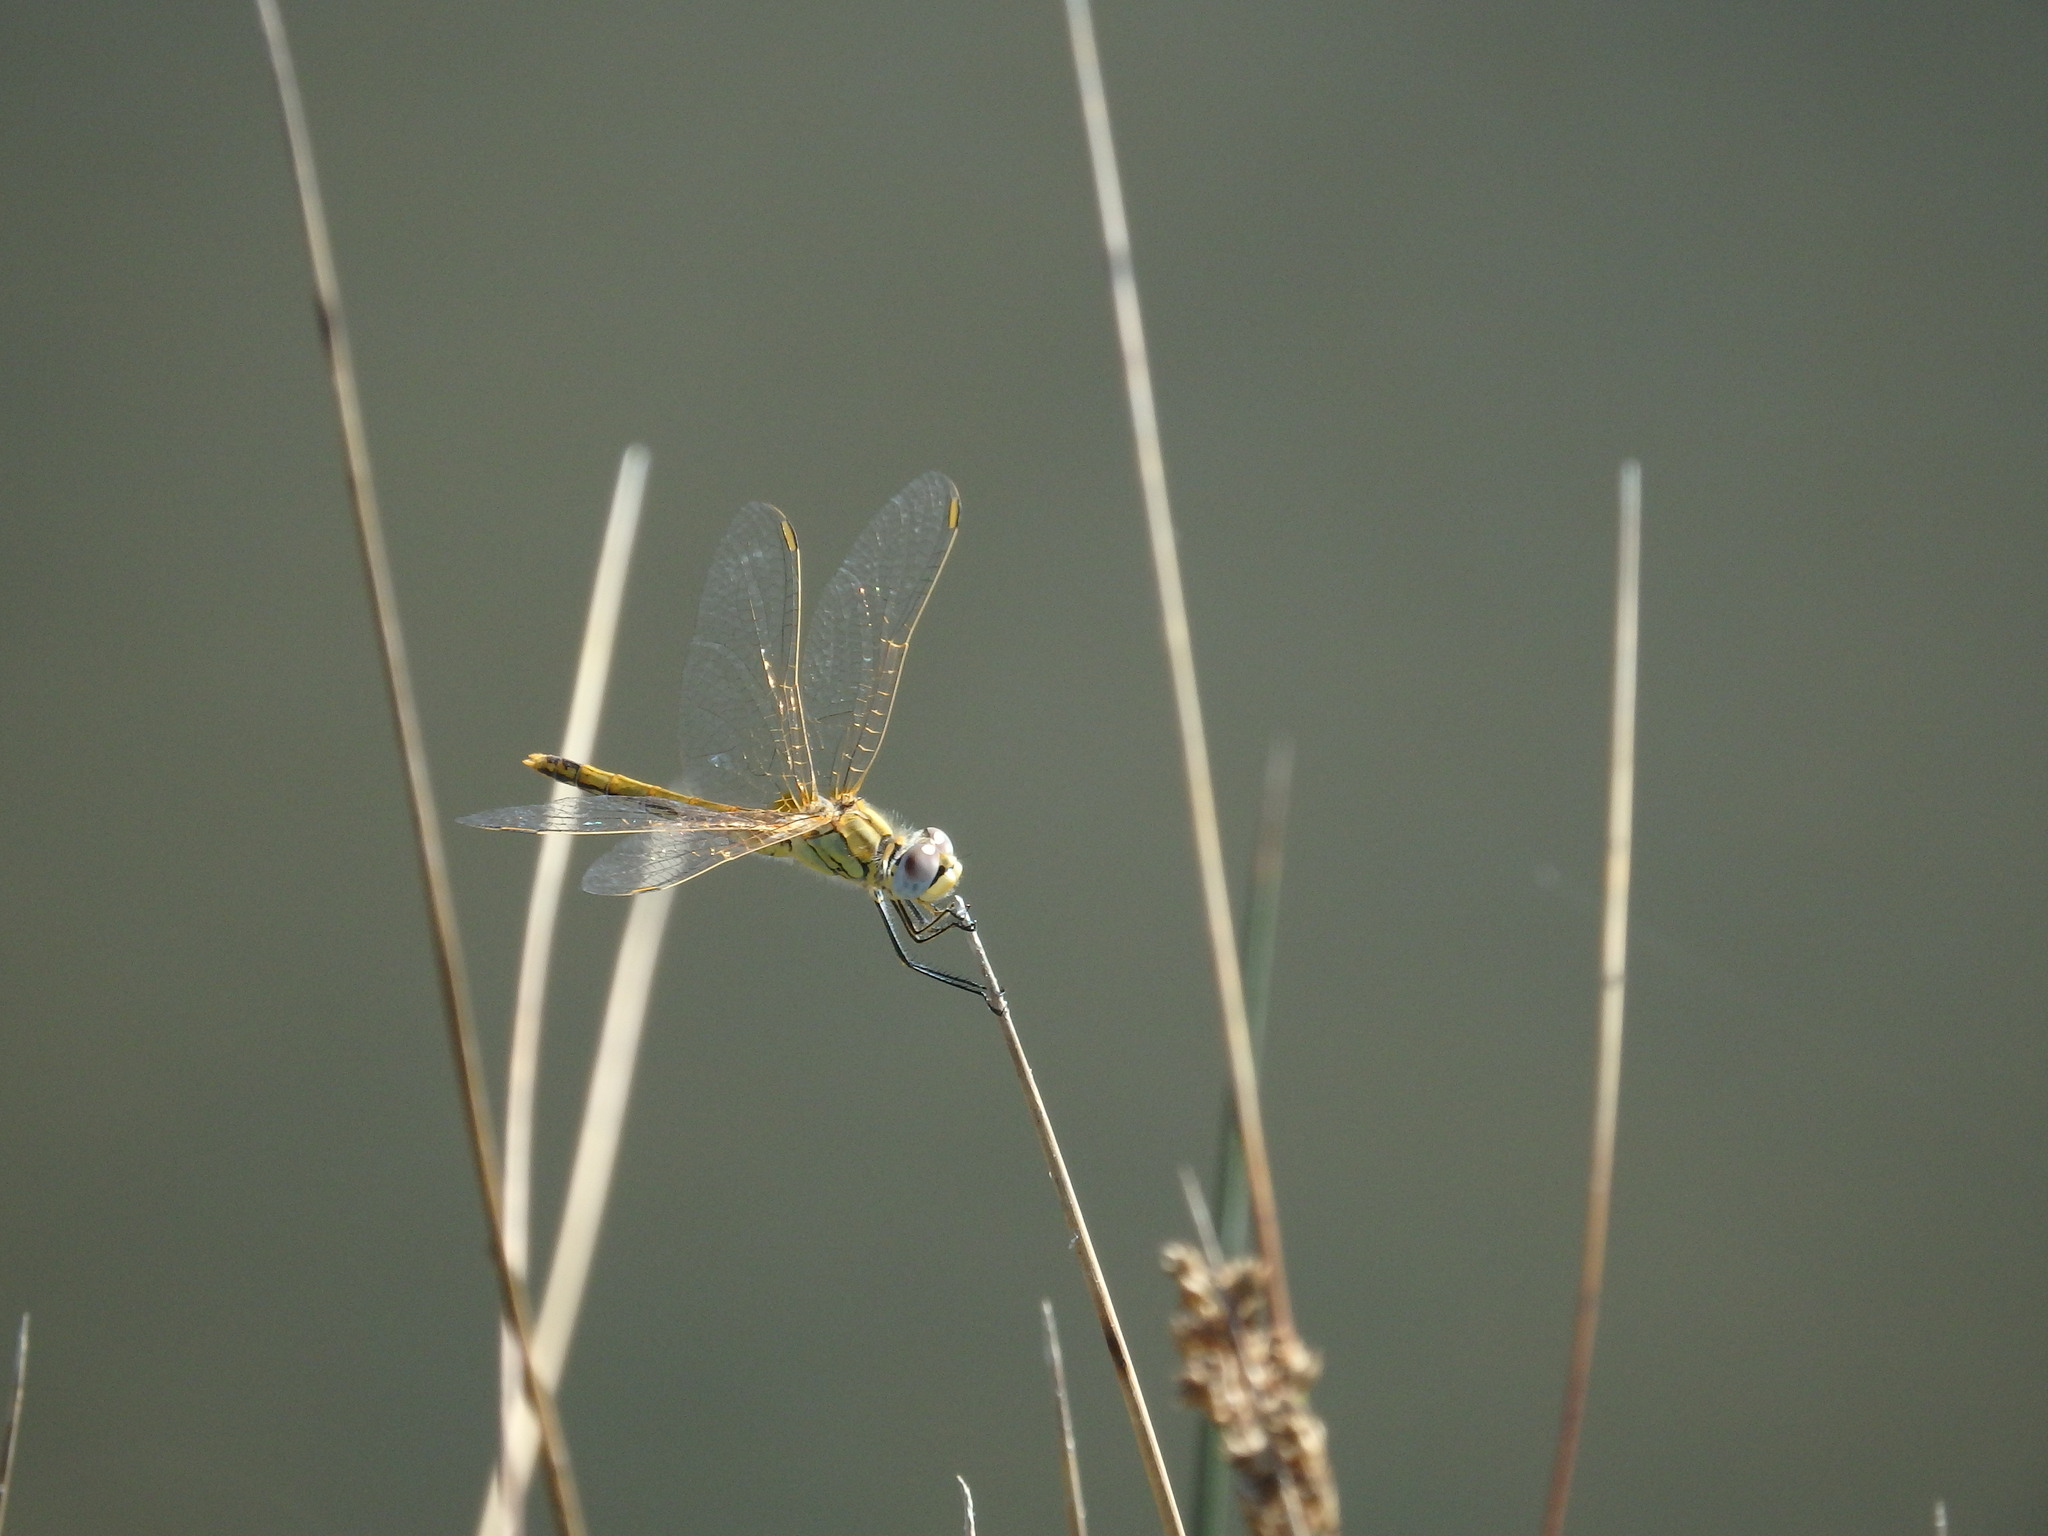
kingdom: Animalia
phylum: Arthropoda
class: Insecta
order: Odonata
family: Libellulidae
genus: Sympetrum
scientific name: Sympetrum fonscolombii
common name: Red-veined darter
